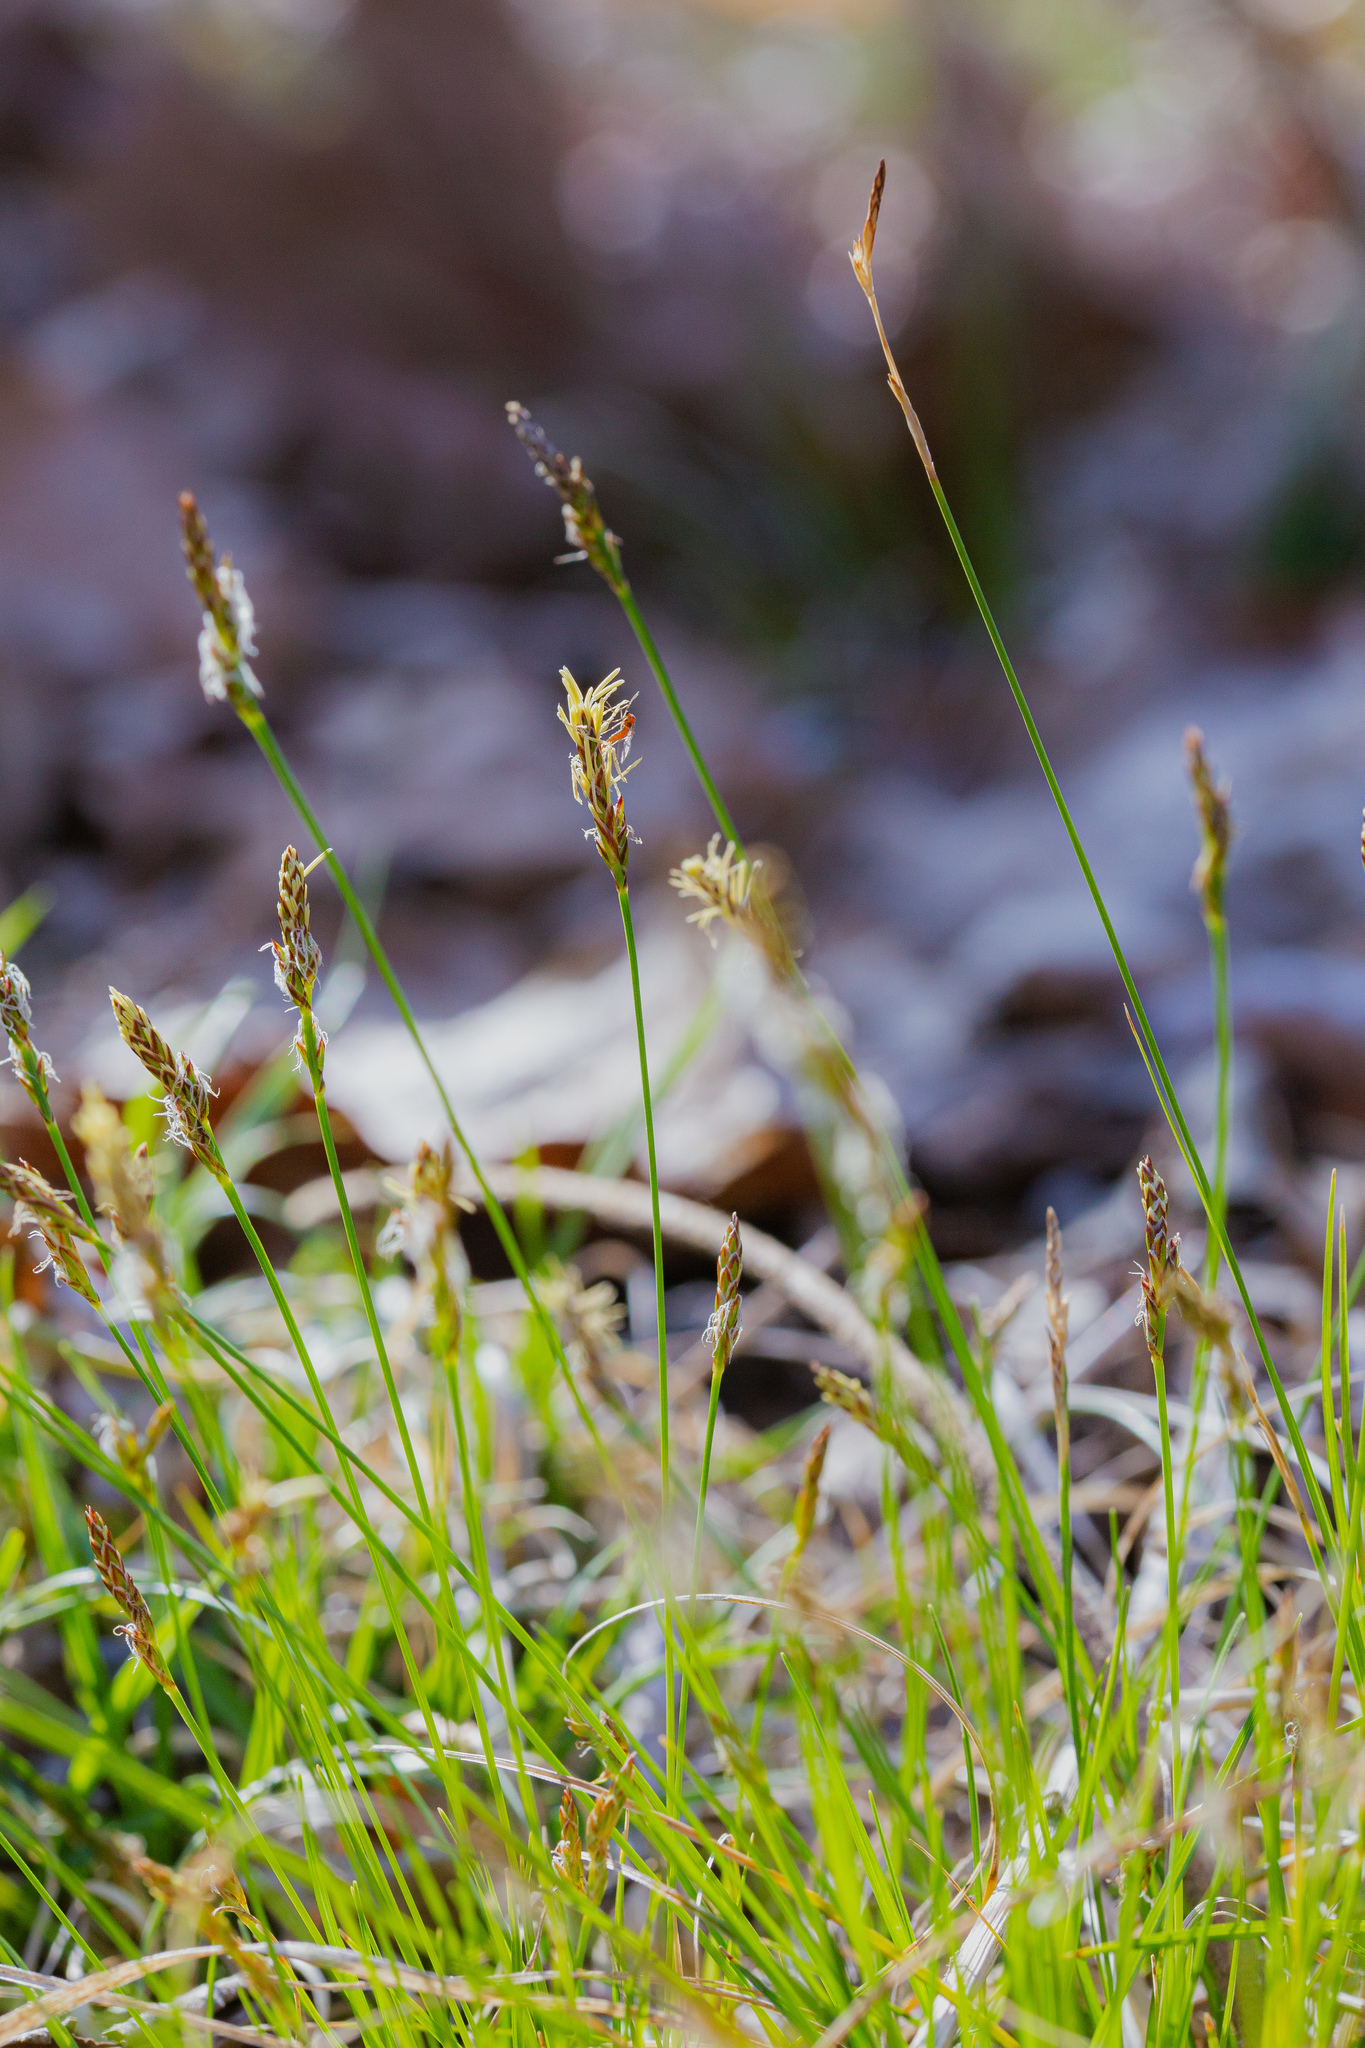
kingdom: Plantae
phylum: Tracheophyta
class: Liliopsida
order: Poales
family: Cyperaceae
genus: Carex
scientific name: Carex albicans
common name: Bellow-beaked sedge
